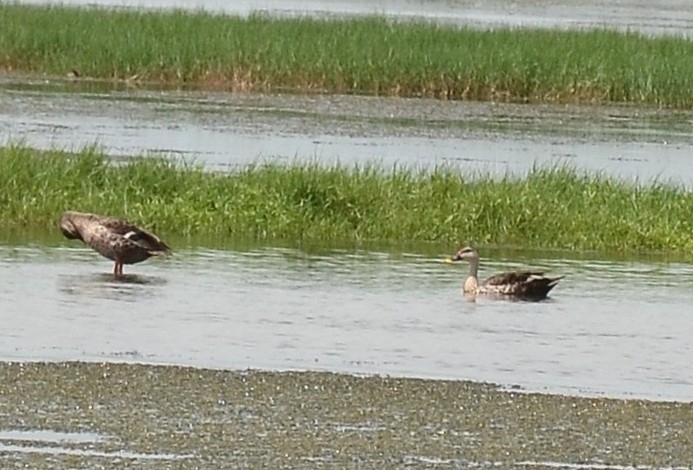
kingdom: Animalia
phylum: Chordata
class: Aves
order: Anseriformes
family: Anatidae
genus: Anas
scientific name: Anas poecilorhyncha
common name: Indian spot-billed duck
